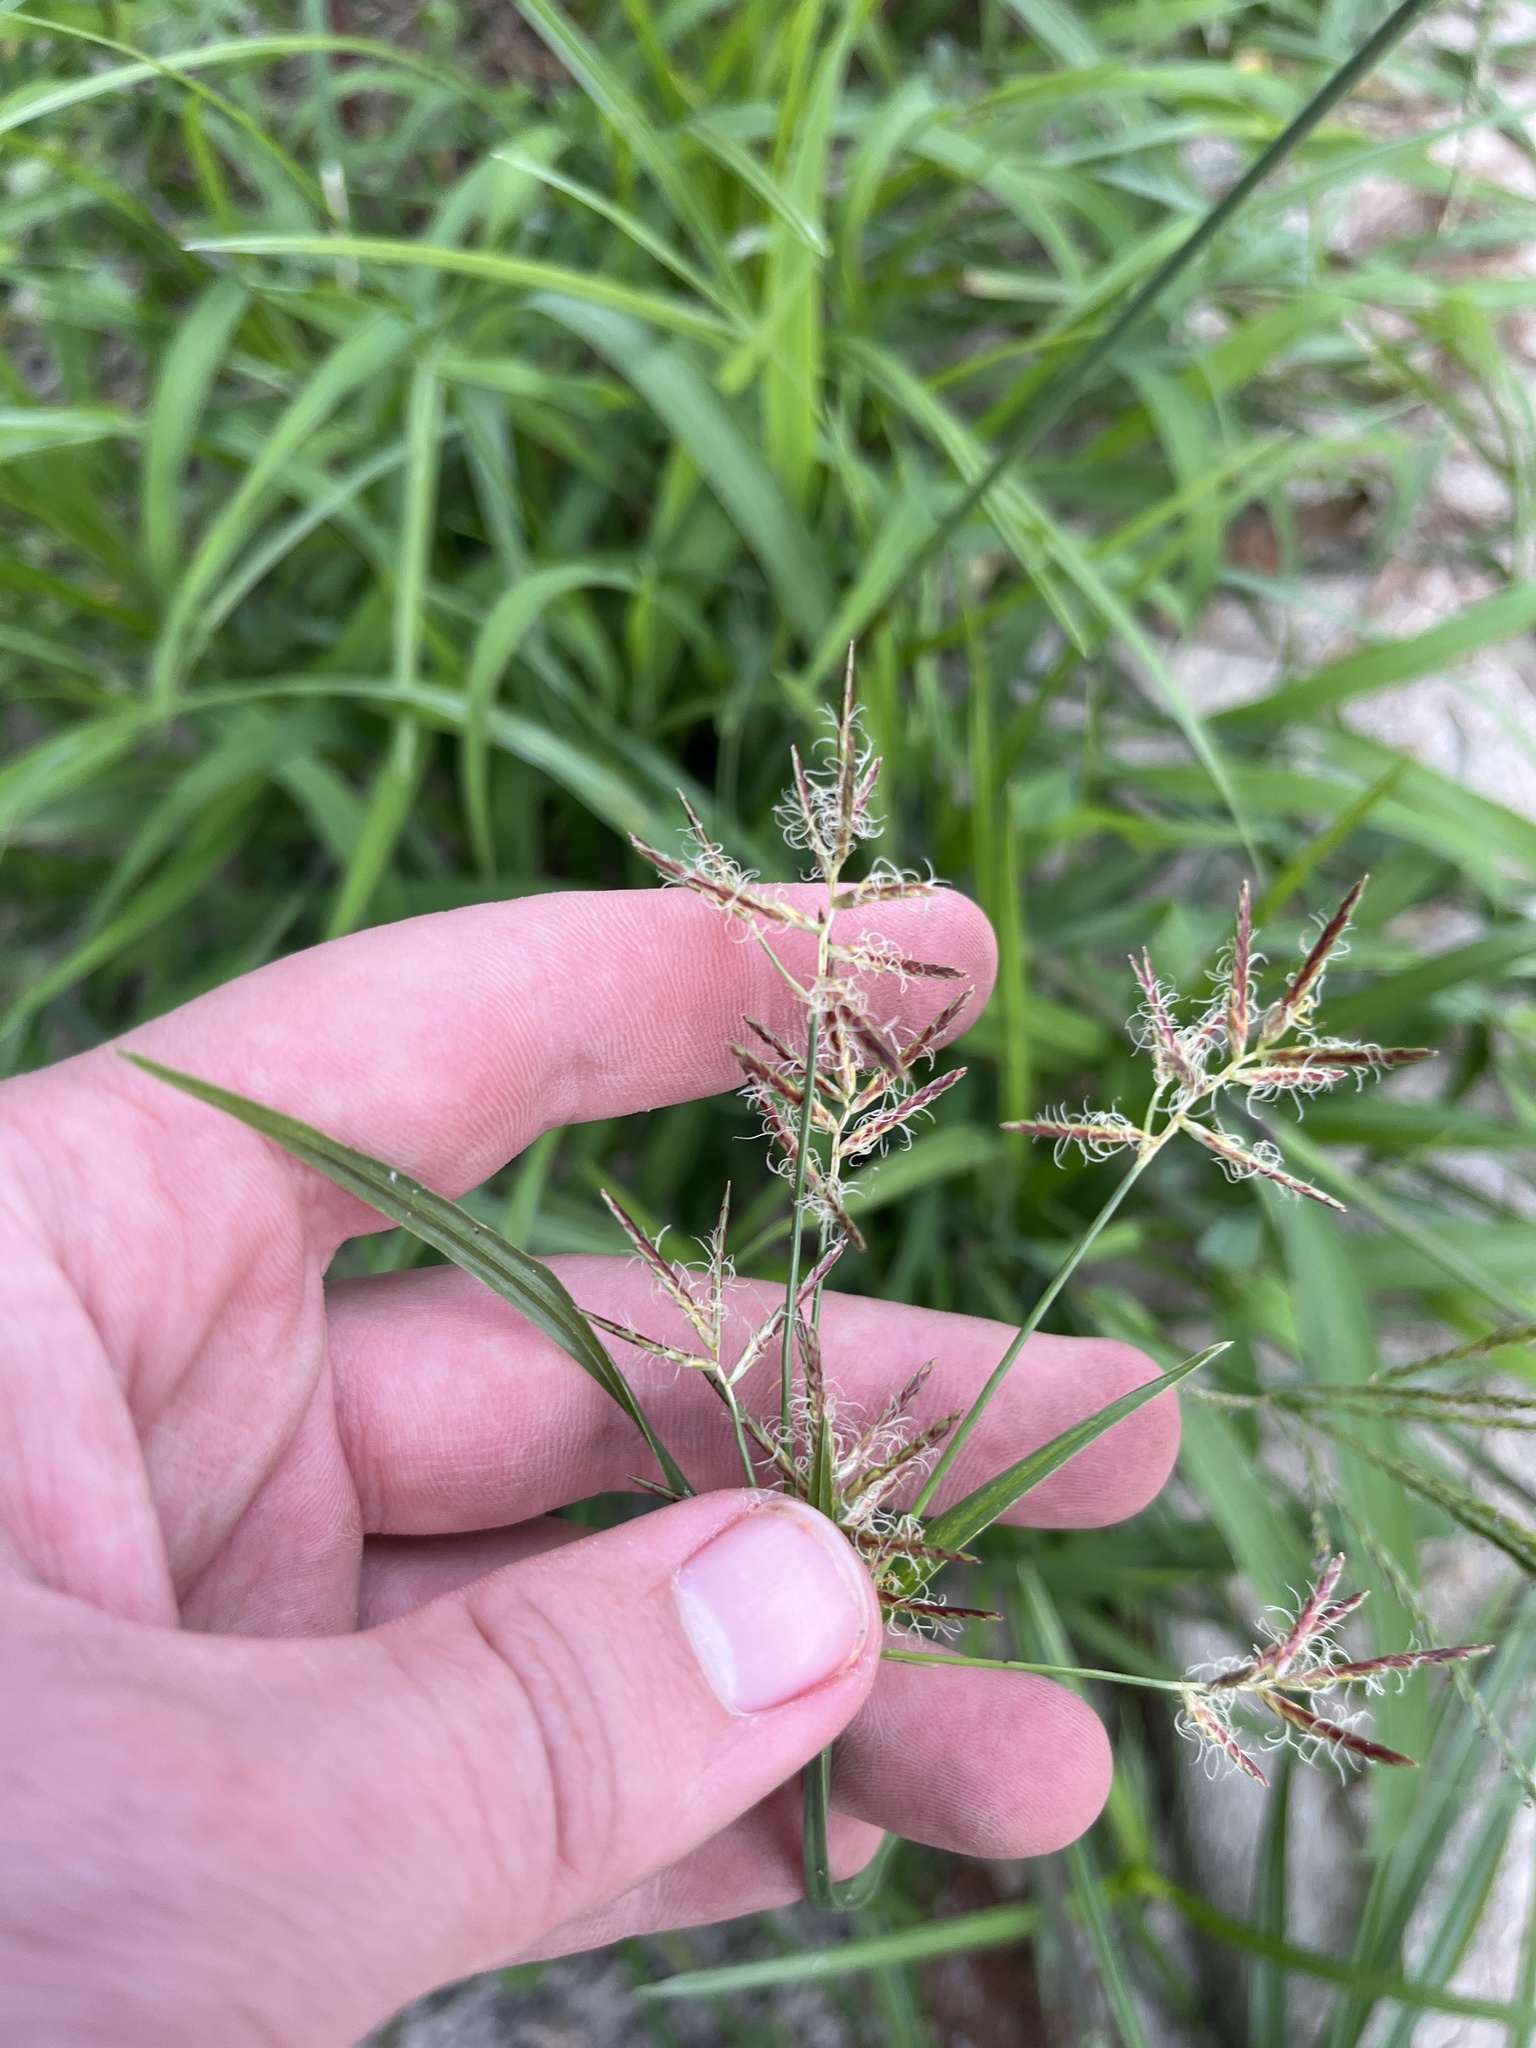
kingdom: Plantae
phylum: Tracheophyta
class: Liliopsida
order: Poales
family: Cyperaceae
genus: Cyperus
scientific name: Cyperus rotundus
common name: Nutgrass
